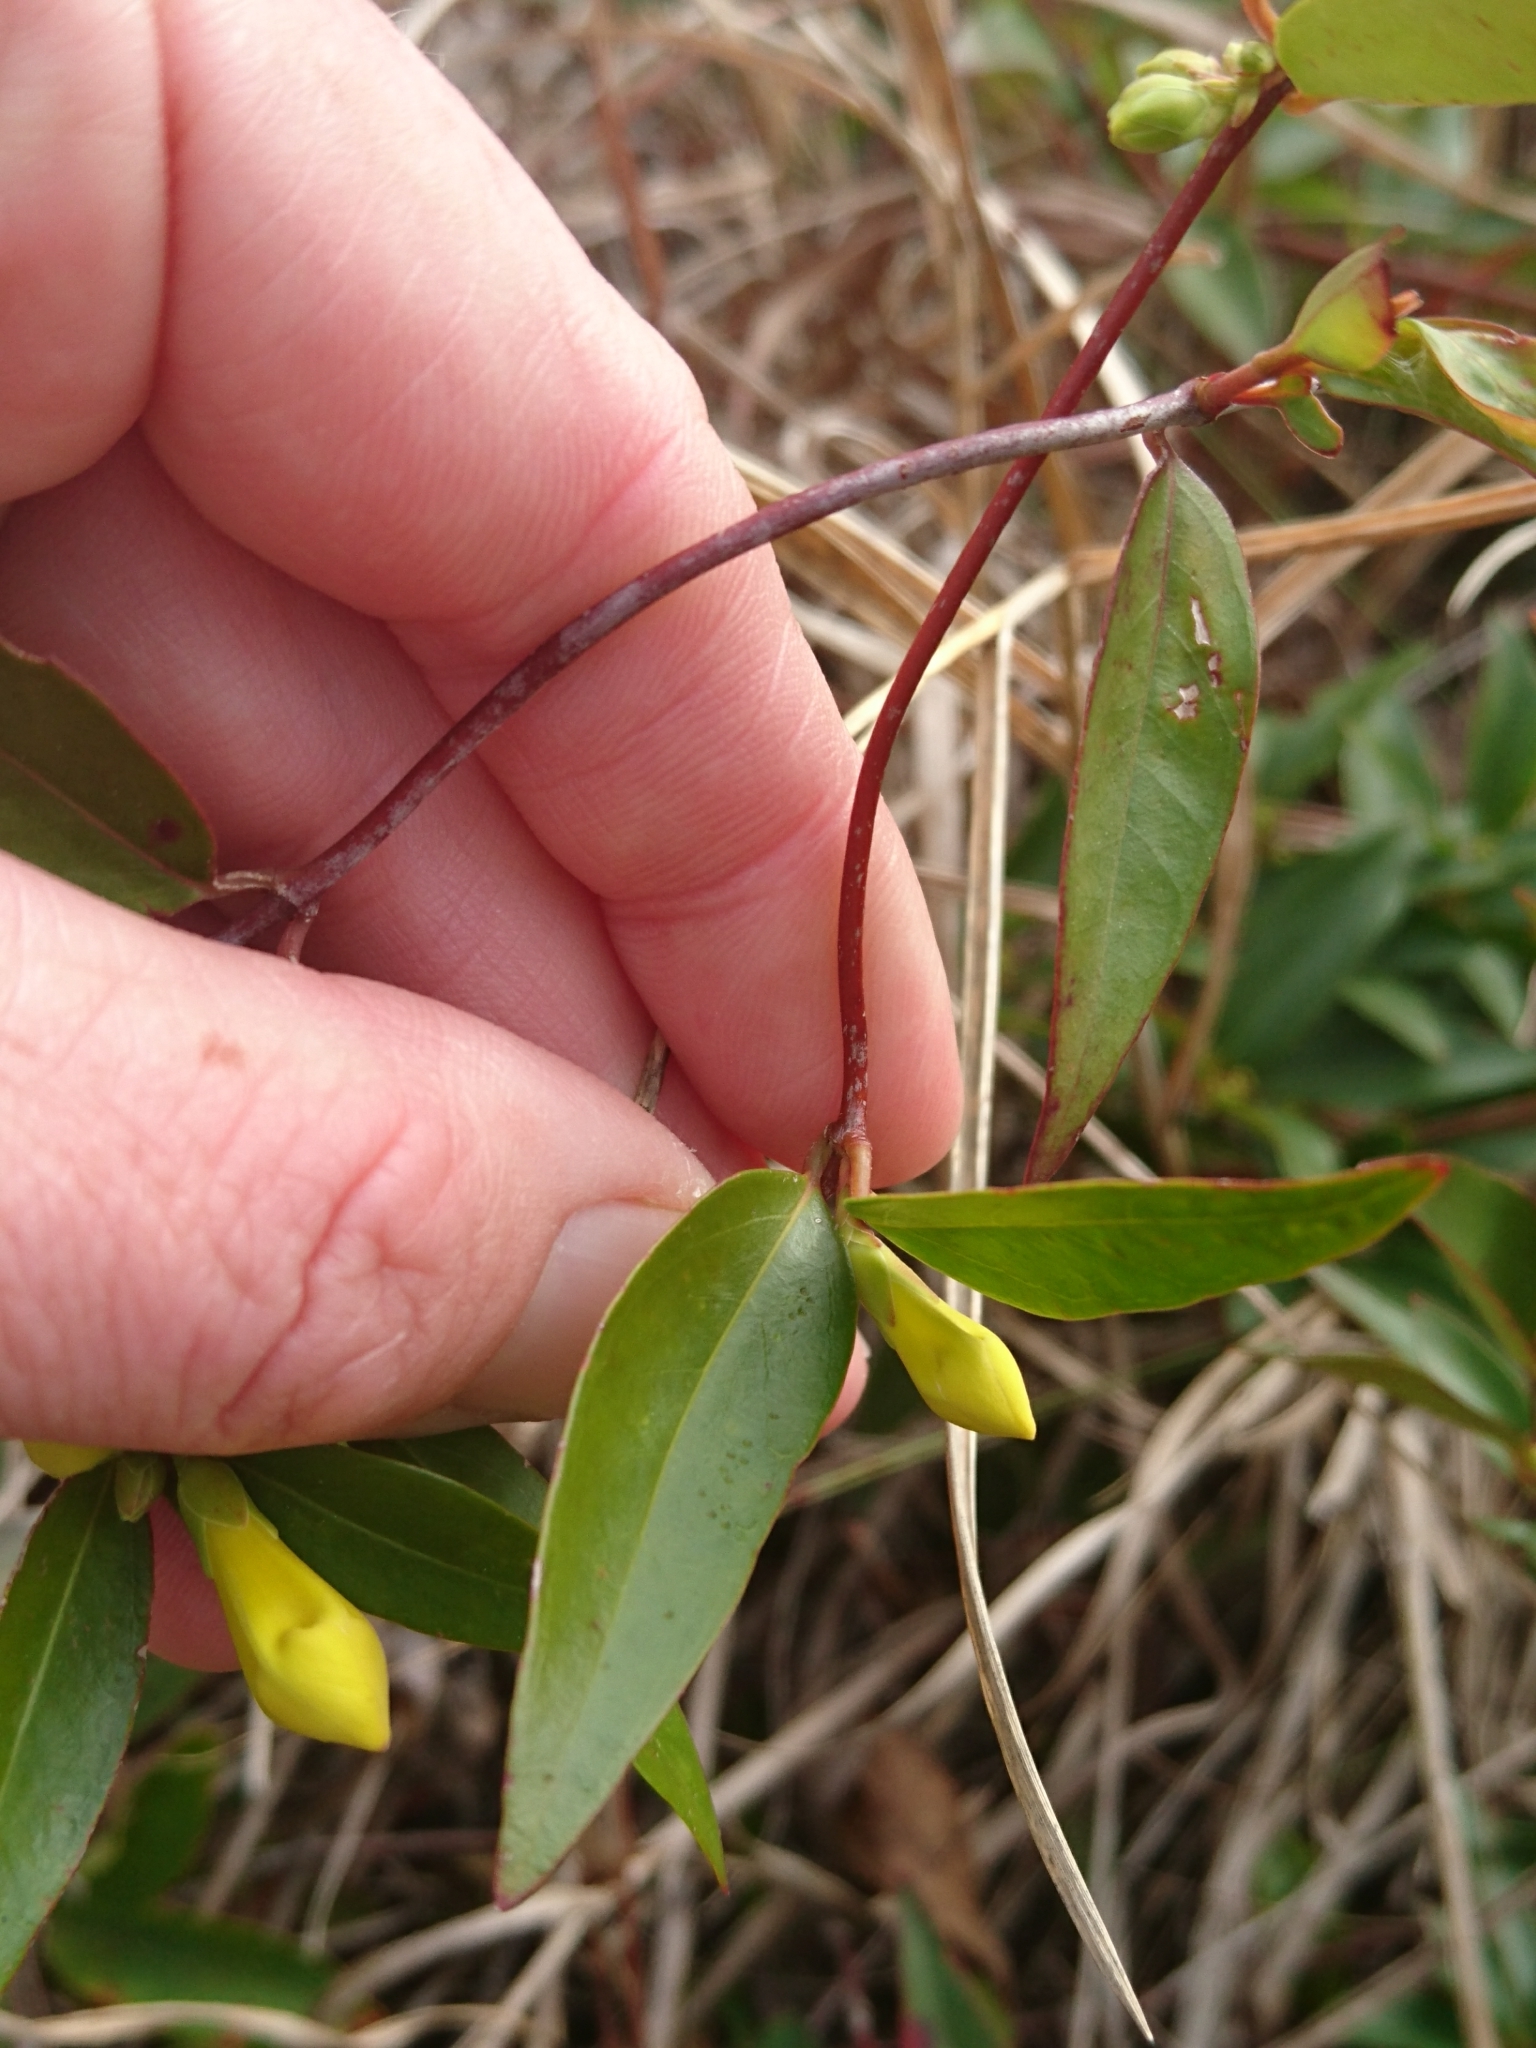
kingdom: Plantae
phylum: Tracheophyta
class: Magnoliopsida
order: Gentianales
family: Gelsemiaceae
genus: Gelsemium
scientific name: Gelsemium sempervirens
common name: Carolina-jasmine
